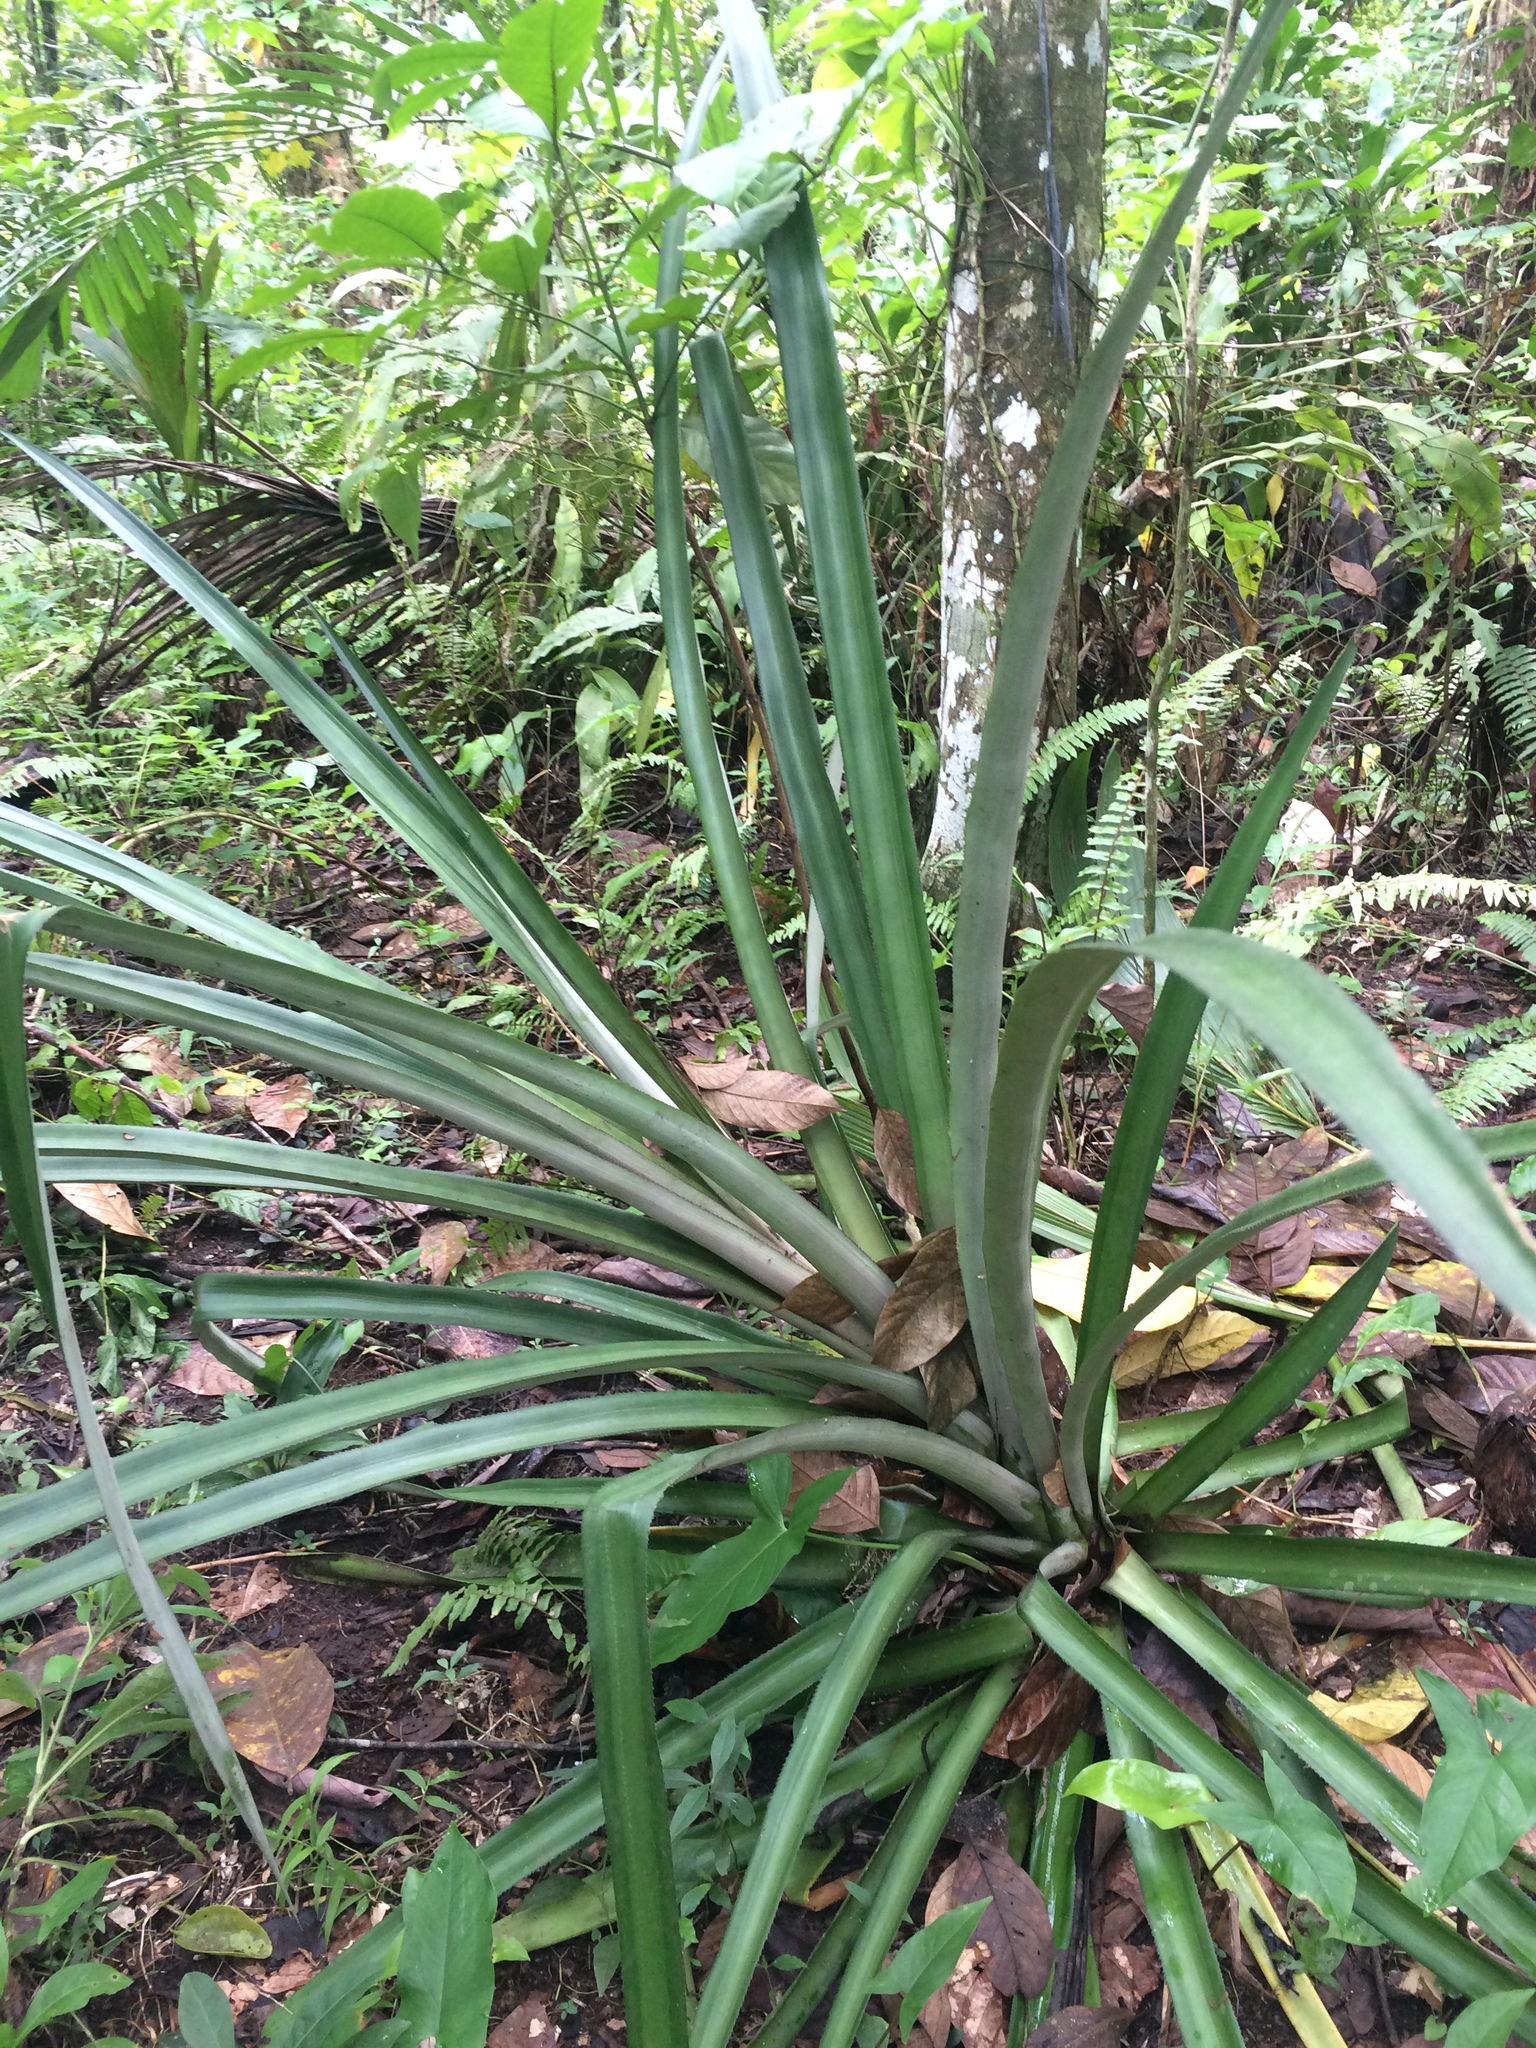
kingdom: Plantae
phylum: Tracheophyta
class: Liliopsida
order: Poales
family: Bromeliaceae
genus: Ananas
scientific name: Ananas comosus
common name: Pineapple
